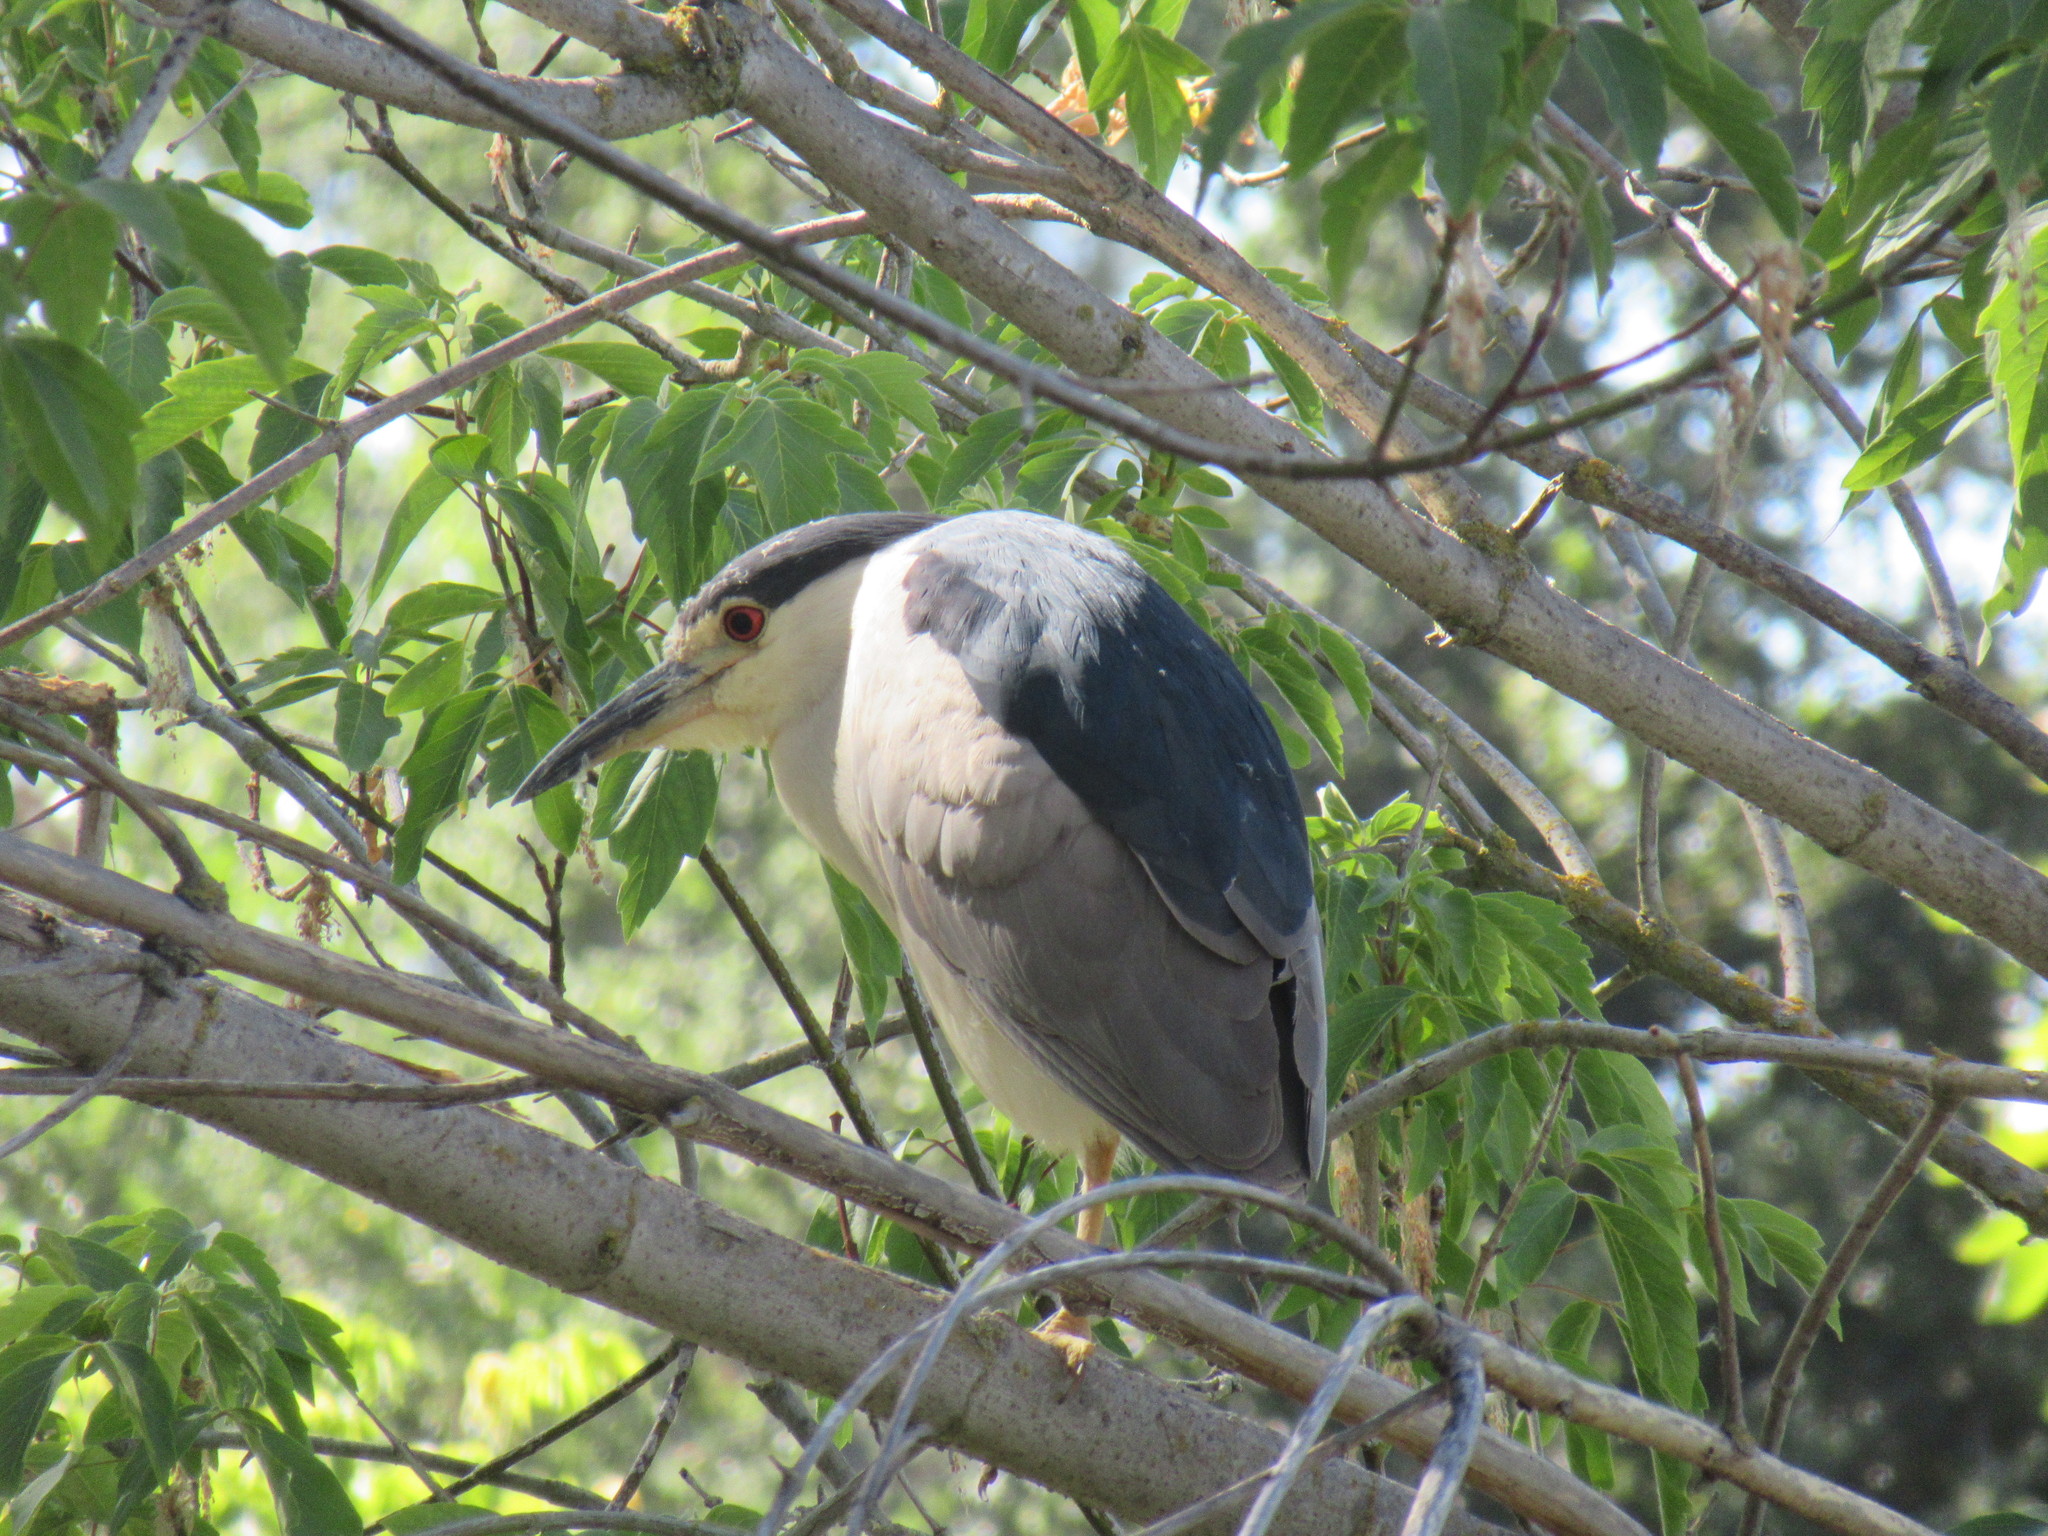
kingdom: Animalia
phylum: Chordata
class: Aves
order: Pelecaniformes
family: Ardeidae
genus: Nycticorax
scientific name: Nycticorax nycticorax
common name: Black-crowned night heron
